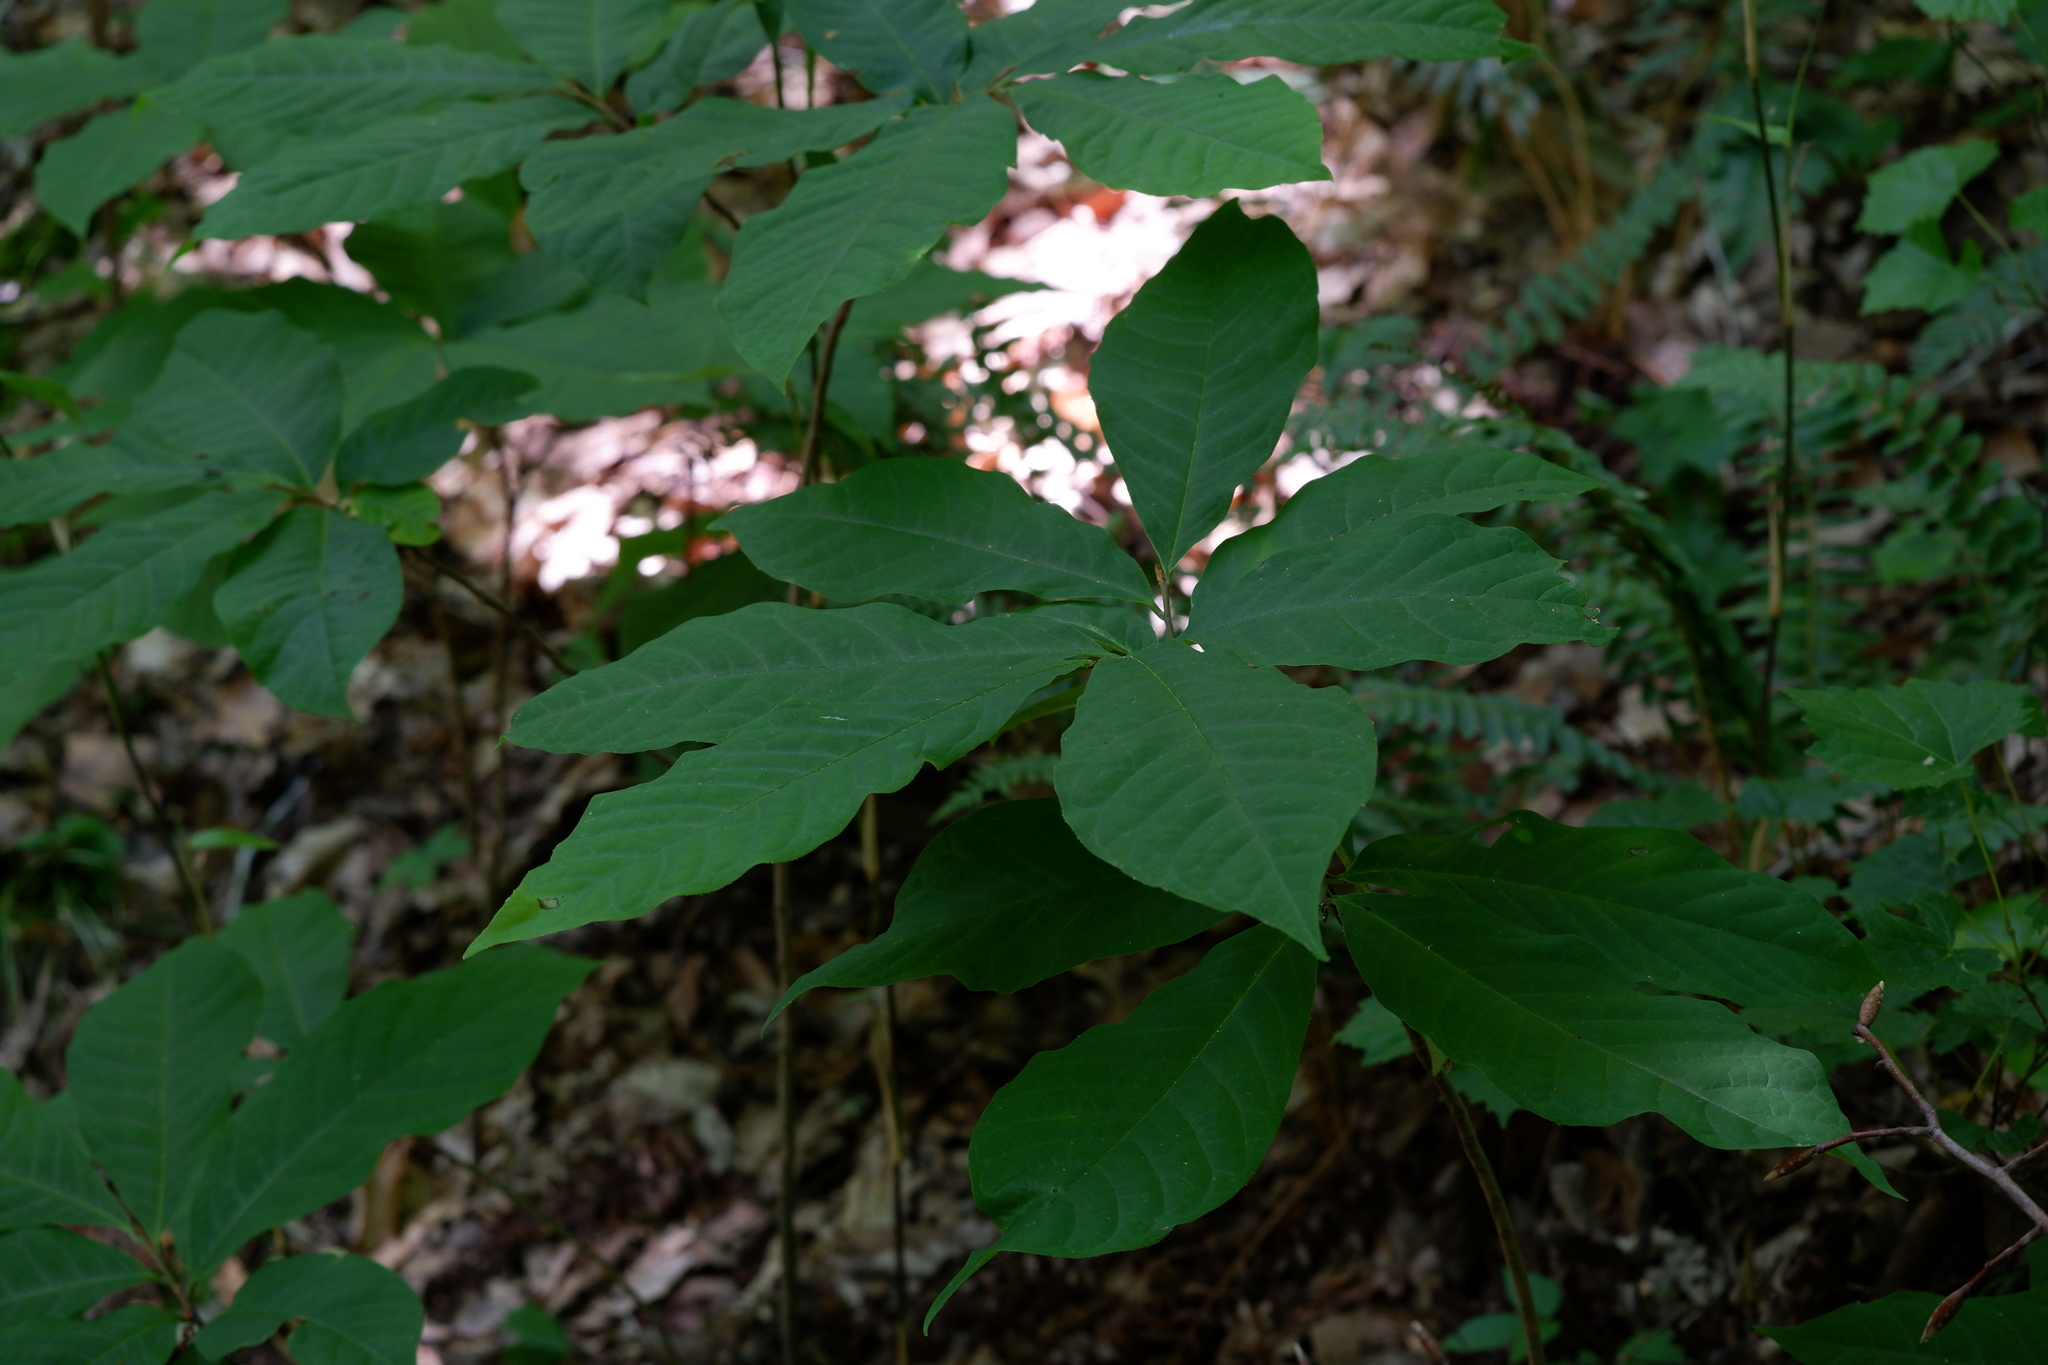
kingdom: Plantae
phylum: Tracheophyta
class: Magnoliopsida
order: Magnoliales
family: Annonaceae
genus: Asimina
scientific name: Asimina triloba
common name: Dog-banana
